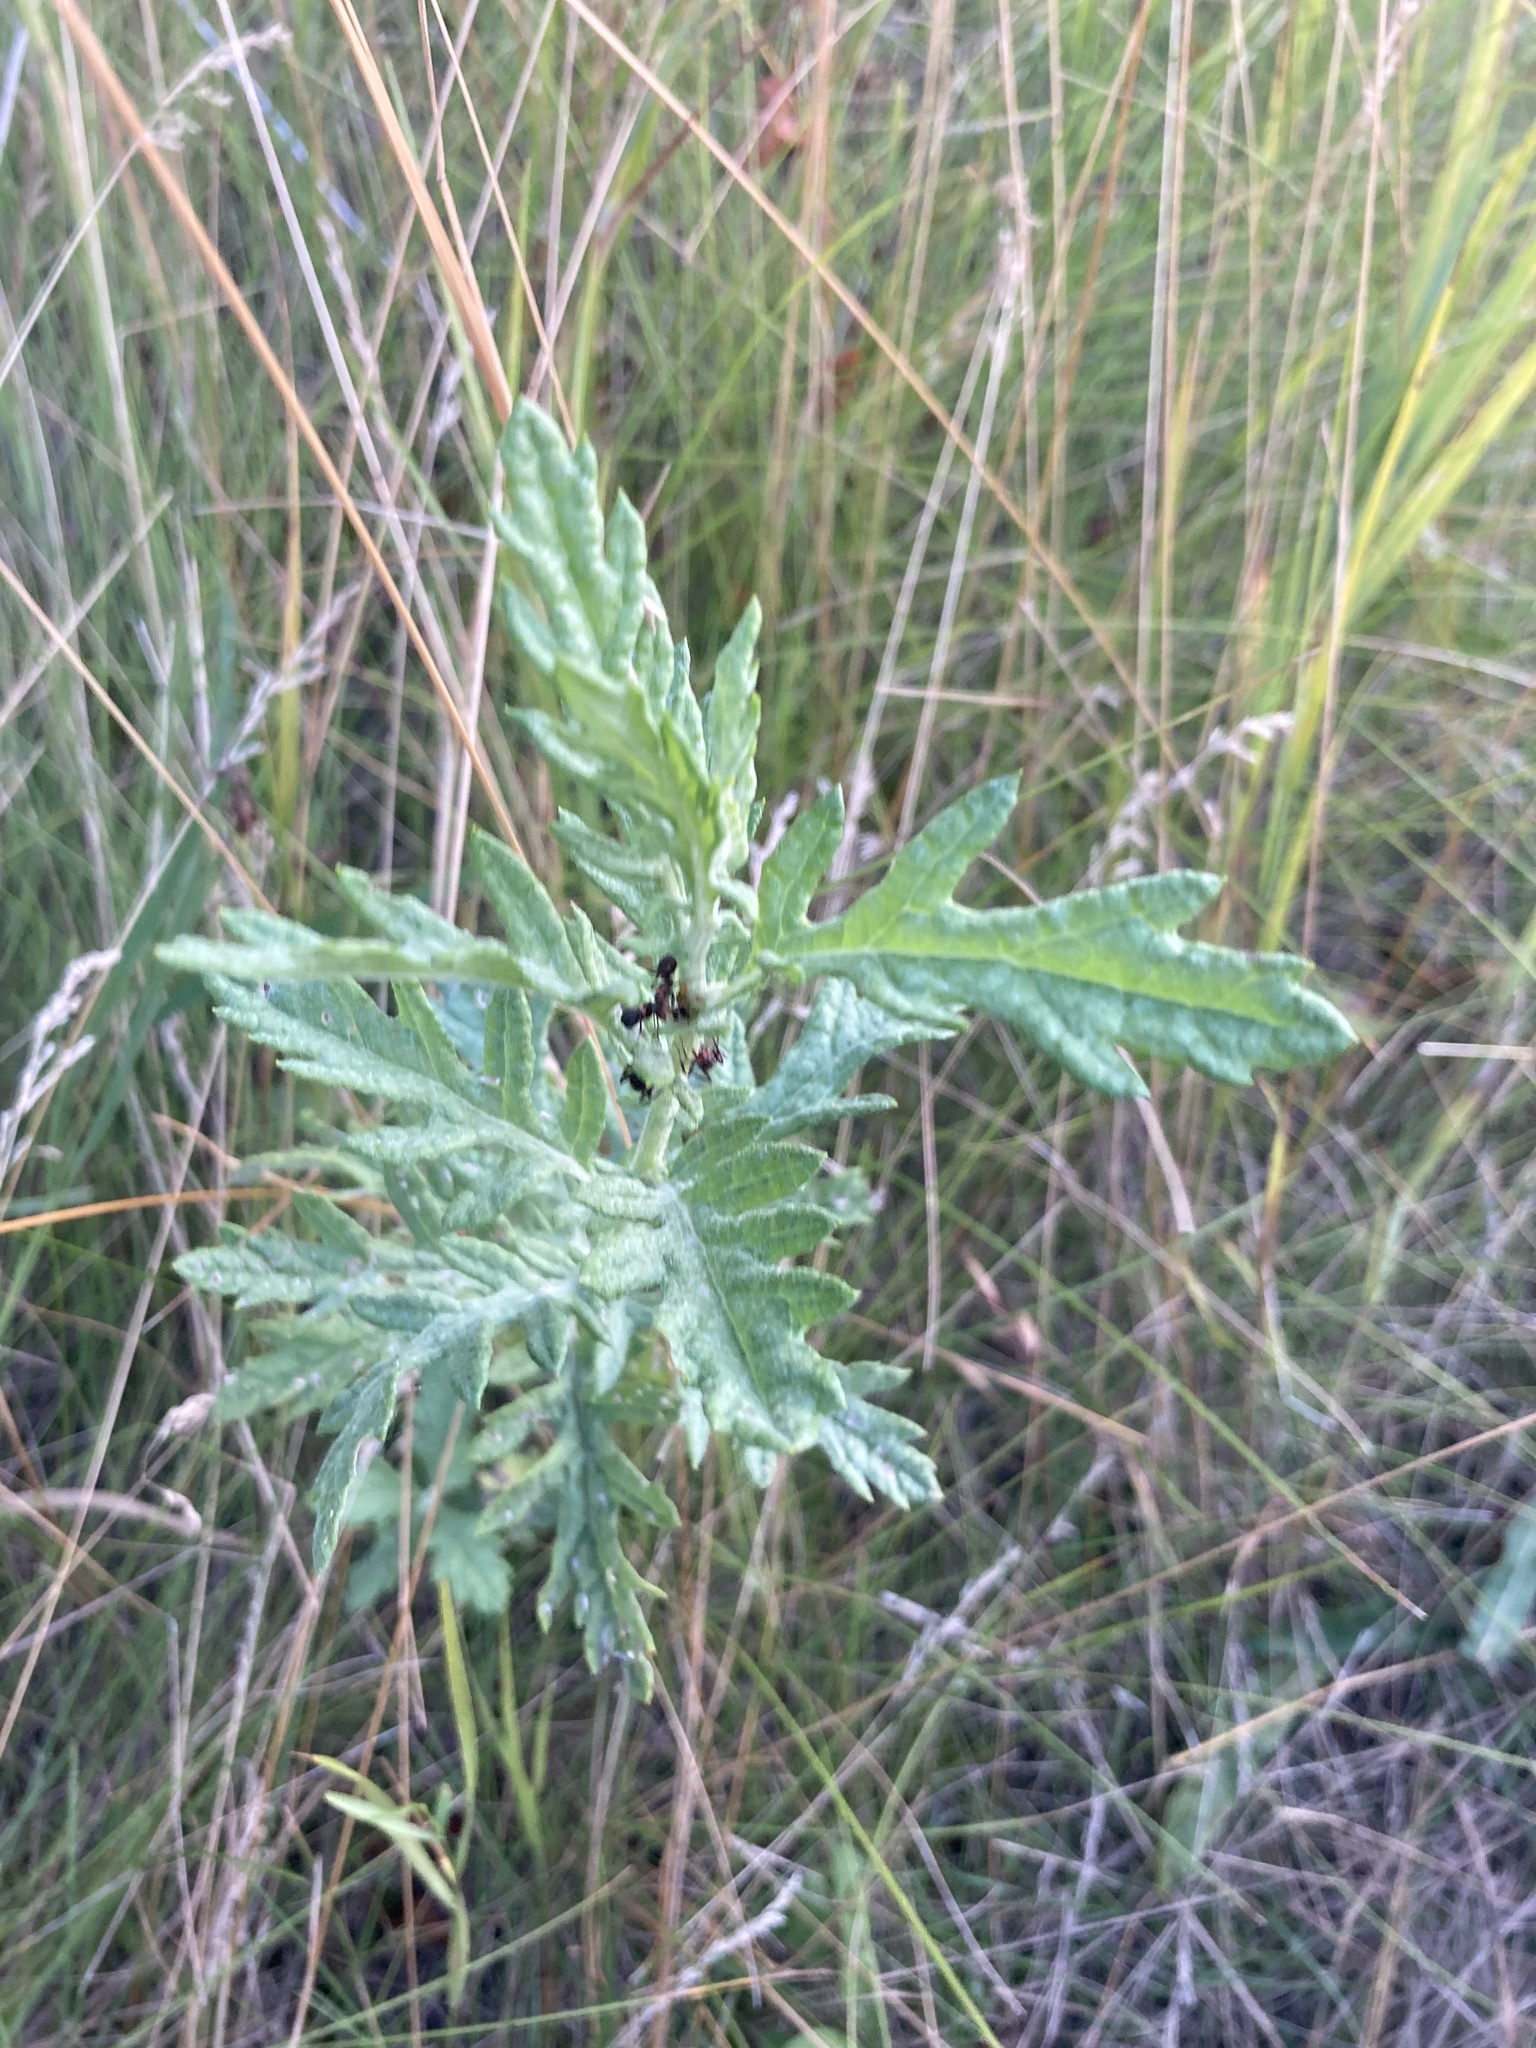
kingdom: Plantae
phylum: Tracheophyta
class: Magnoliopsida
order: Asterales
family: Asteraceae
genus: Jacobaea
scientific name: Jacobaea erucifolia
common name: Hoary ragwort
